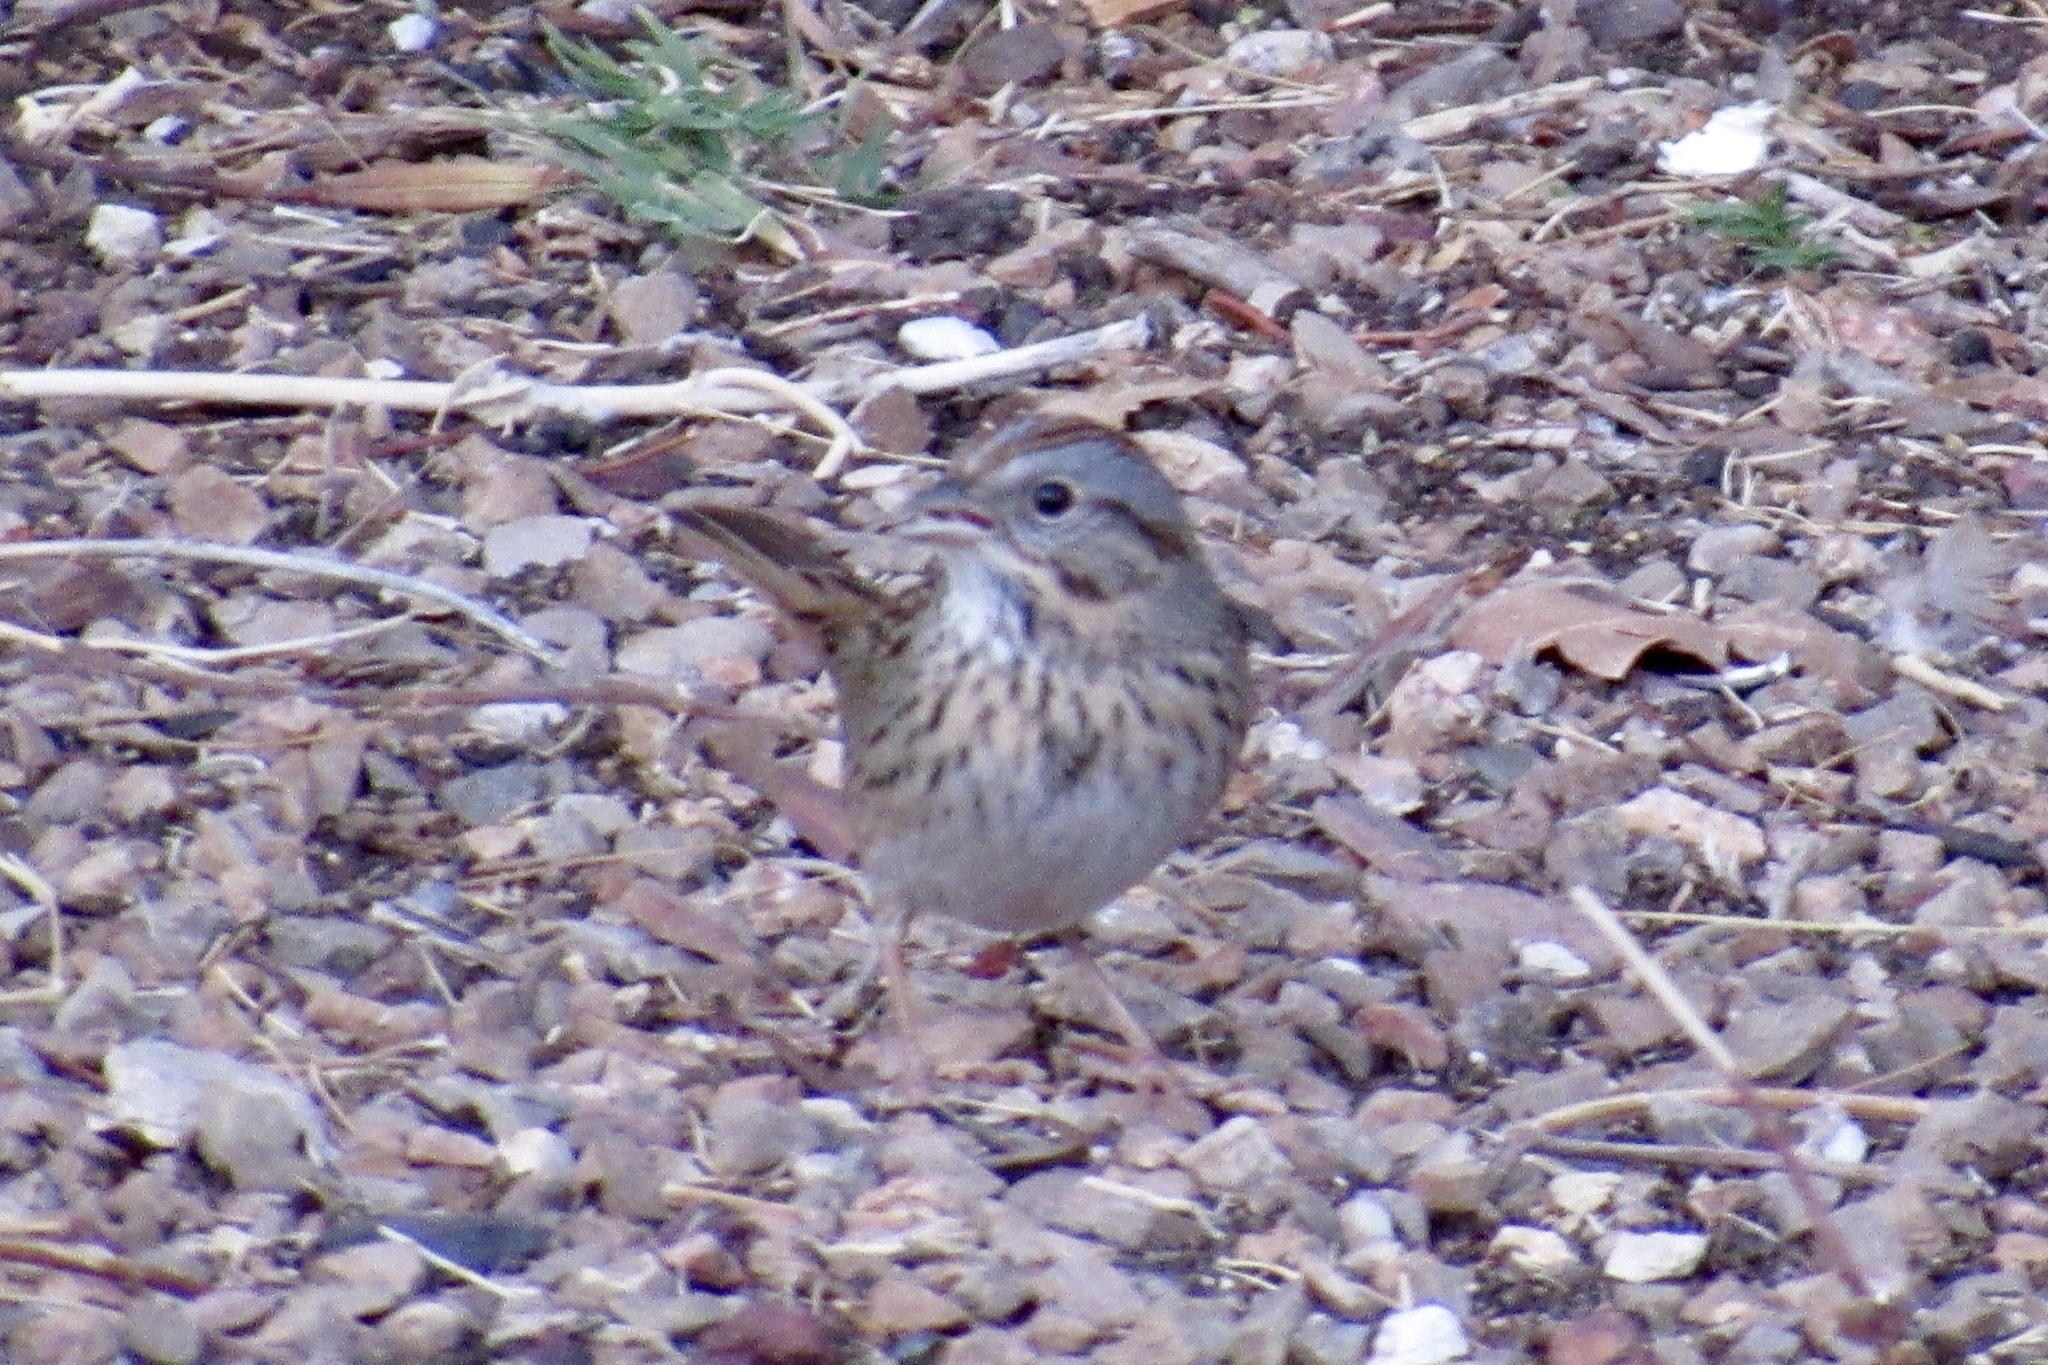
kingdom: Animalia
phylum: Chordata
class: Aves
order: Passeriformes
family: Passerellidae
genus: Melospiza
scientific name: Melospiza lincolnii
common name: Lincoln's sparrow
